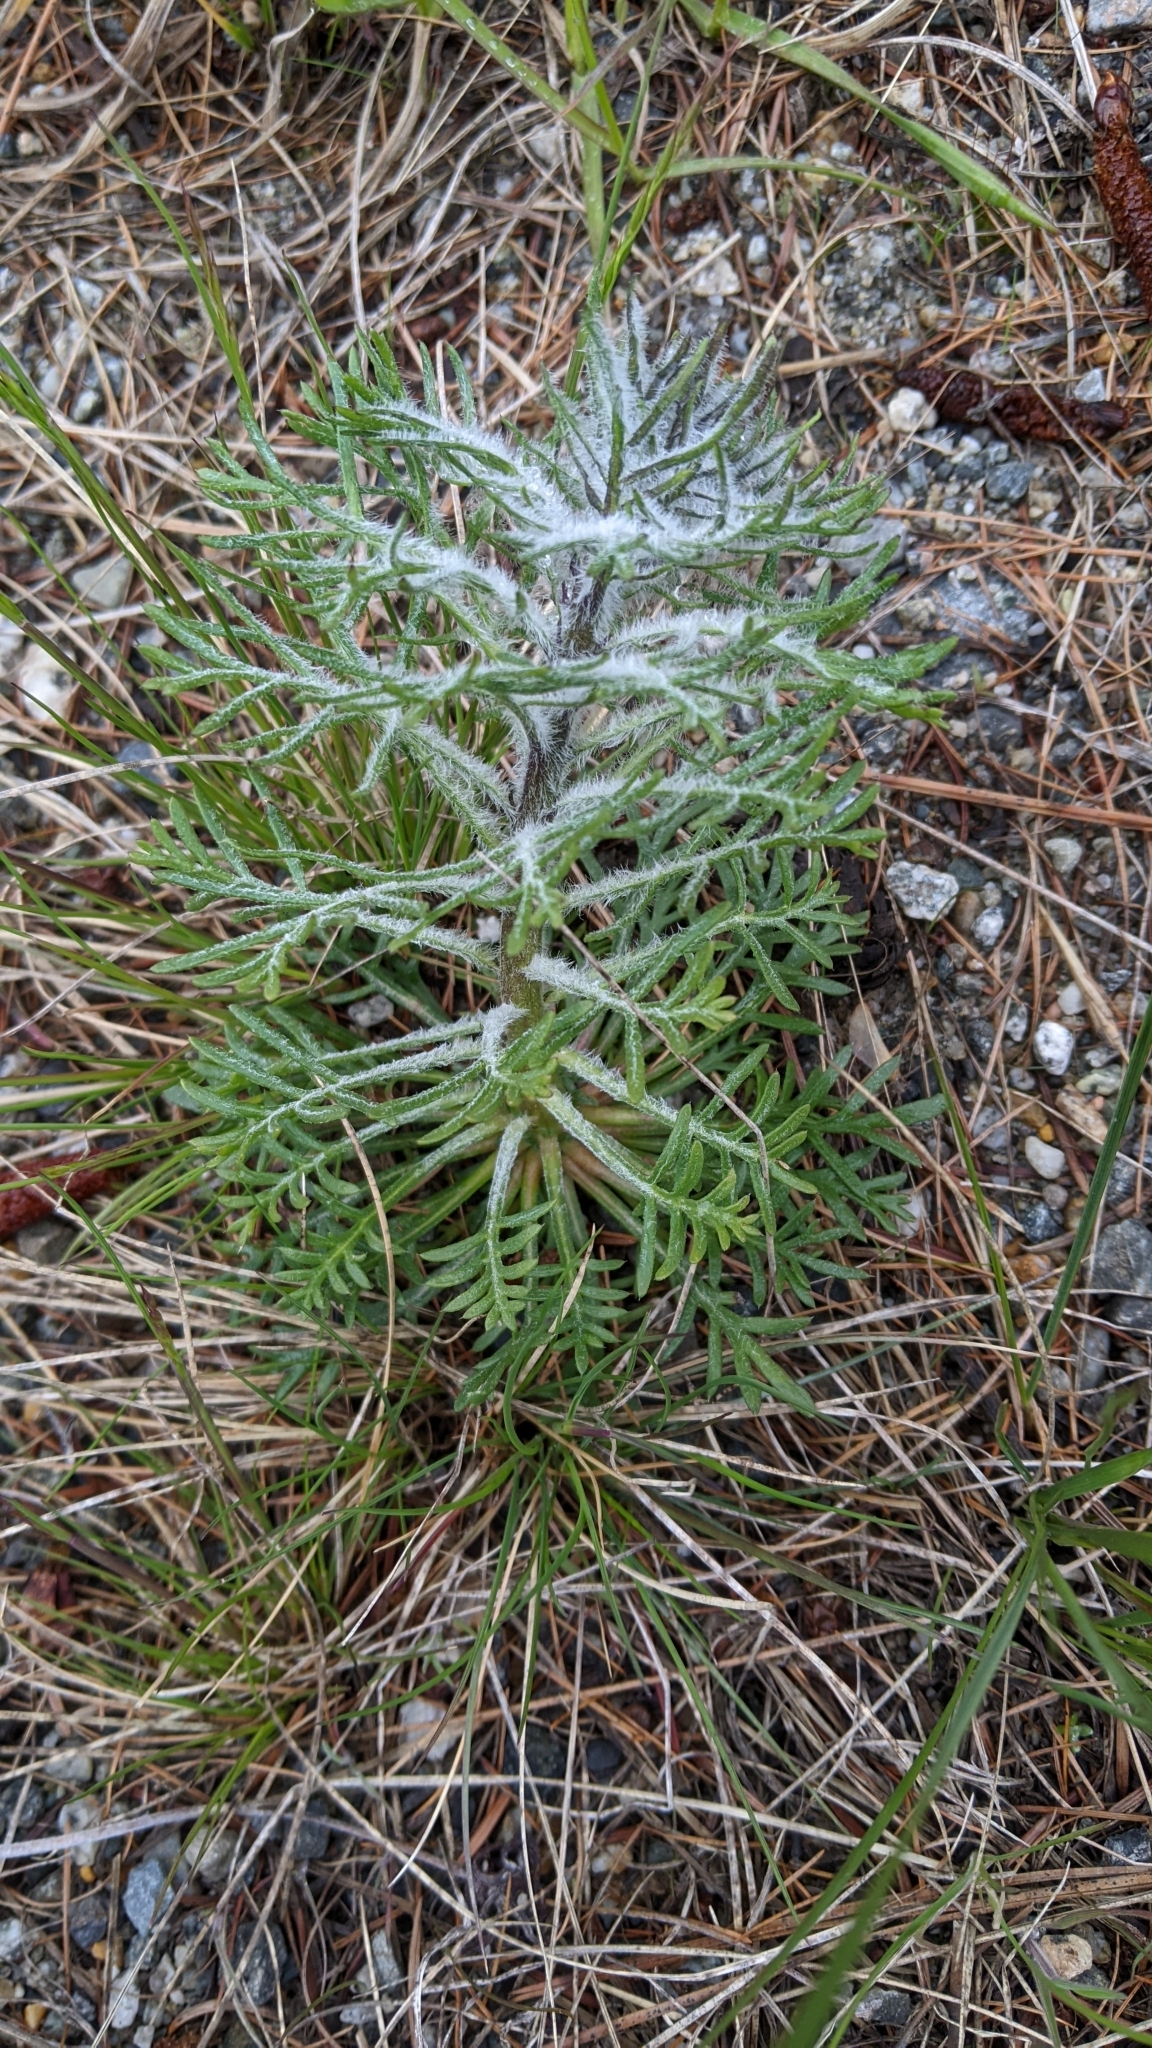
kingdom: Plantae
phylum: Tracheophyta
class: Magnoliopsida
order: Ericales
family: Polemoniaceae
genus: Ipomopsis
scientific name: Ipomopsis aggregata
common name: Scarlet gilia
